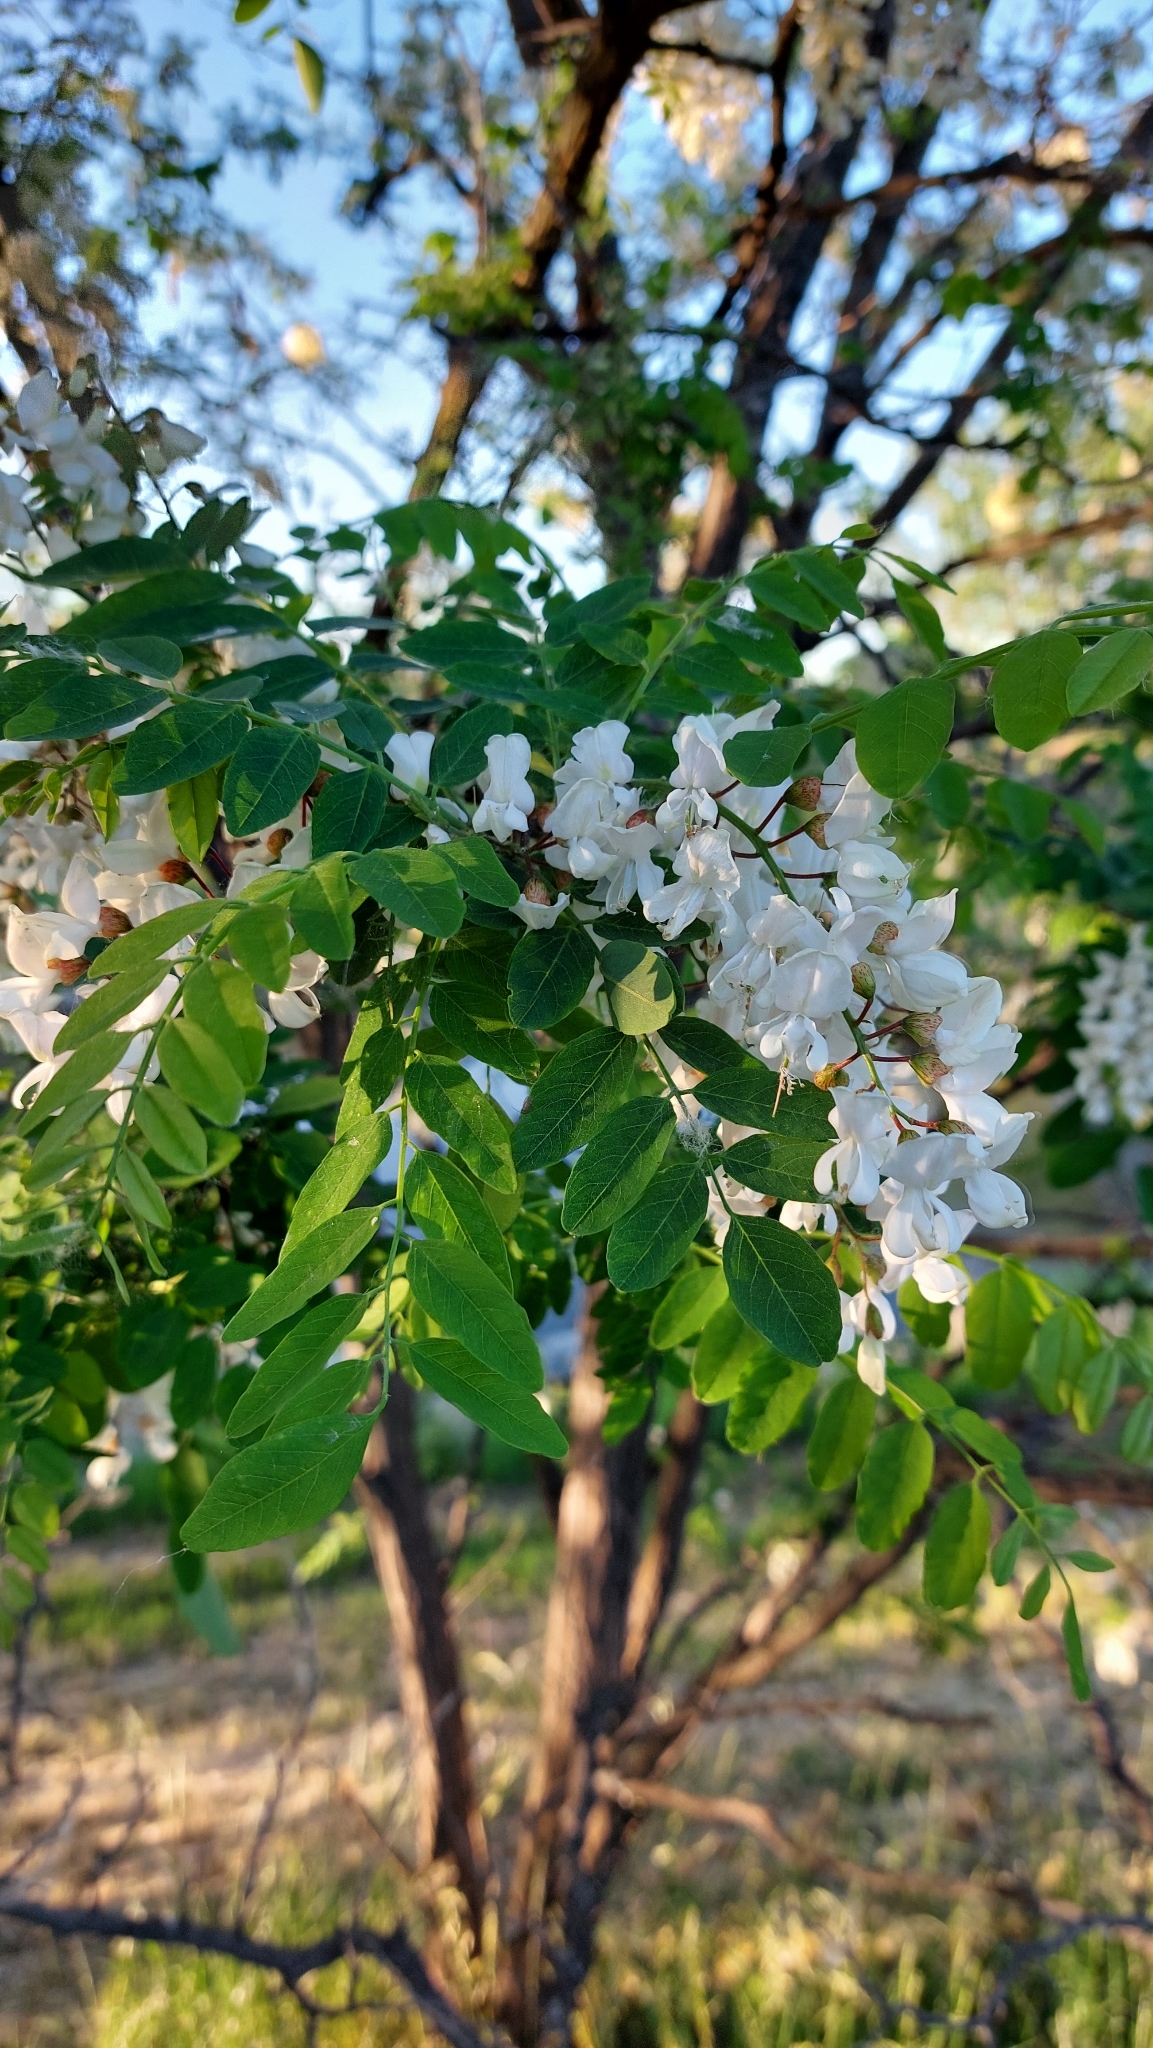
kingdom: Plantae
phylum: Tracheophyta
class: Magnoliopsida
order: Fabales
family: Fabaceae
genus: Robinia
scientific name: Robinia pseudoacacia
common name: Black locust
